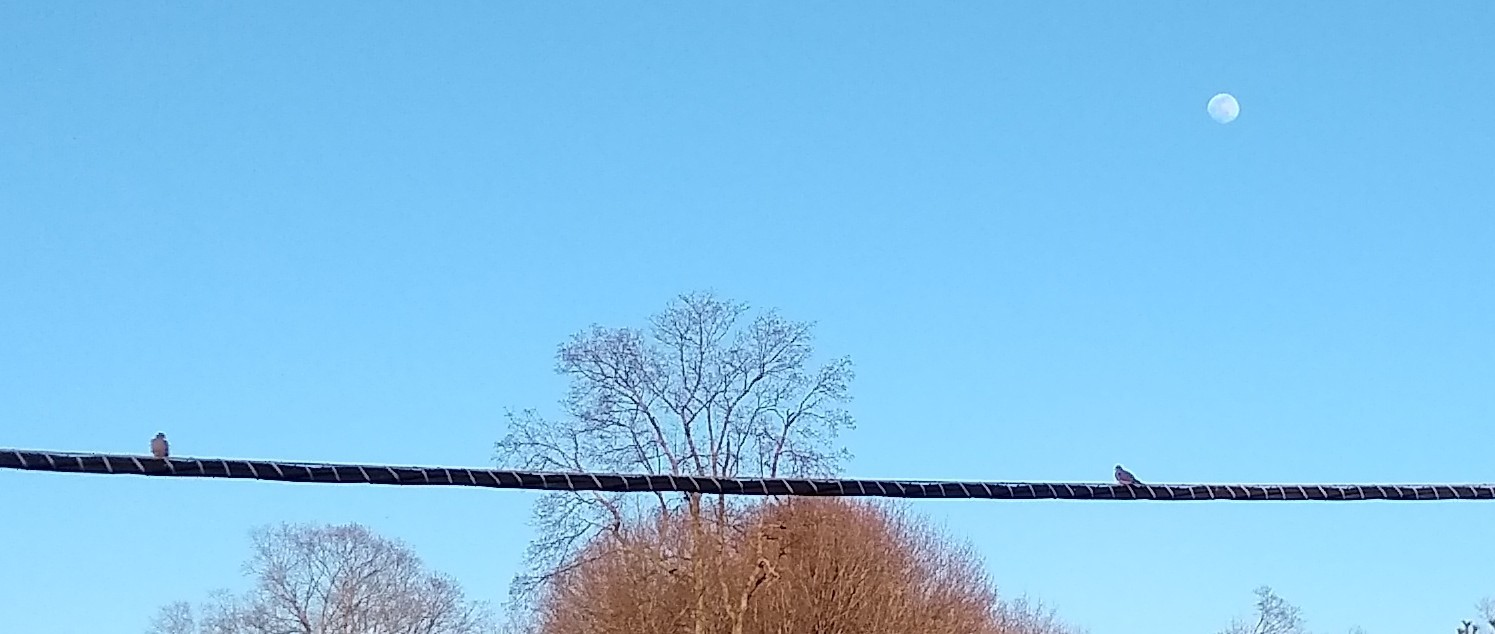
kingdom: Animalia
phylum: Chordata
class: Aves
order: Columbiformes
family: Columbidae
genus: Zenaida
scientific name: Zenaida macroura
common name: Mourning dove
